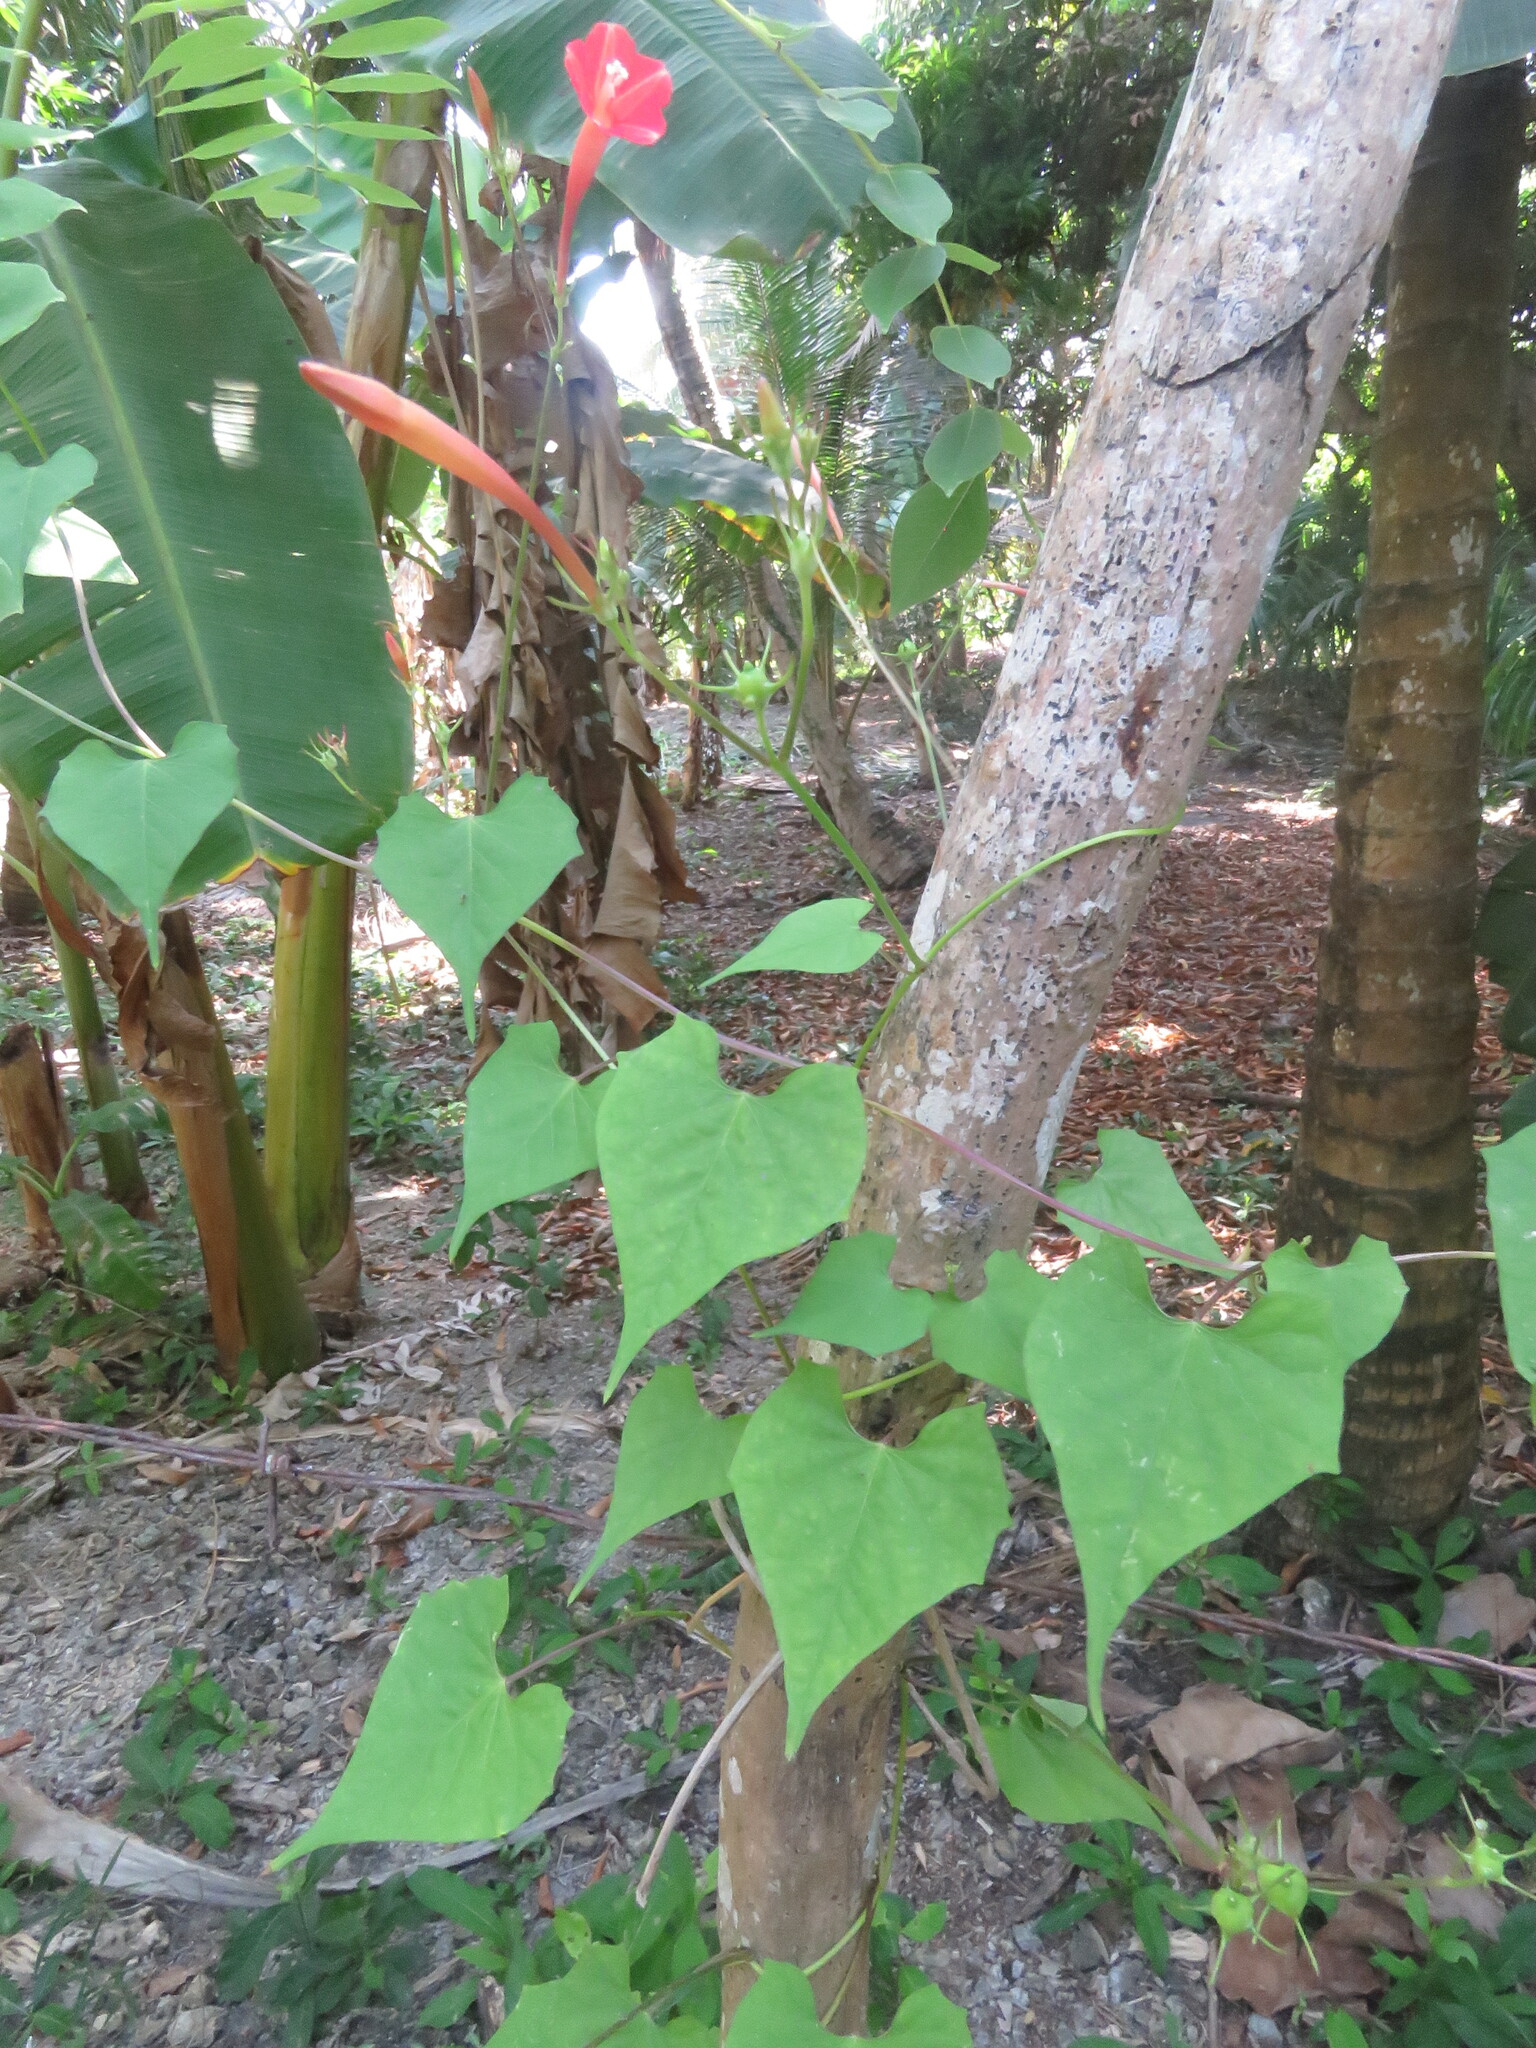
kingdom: Plantae
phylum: Tracheophyta
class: Magnoliopsida
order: Solanales
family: Convolvulaceae
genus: Ipomoea
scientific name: Ipomoea hederifolia
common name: Ivy-leaf morning-glory
